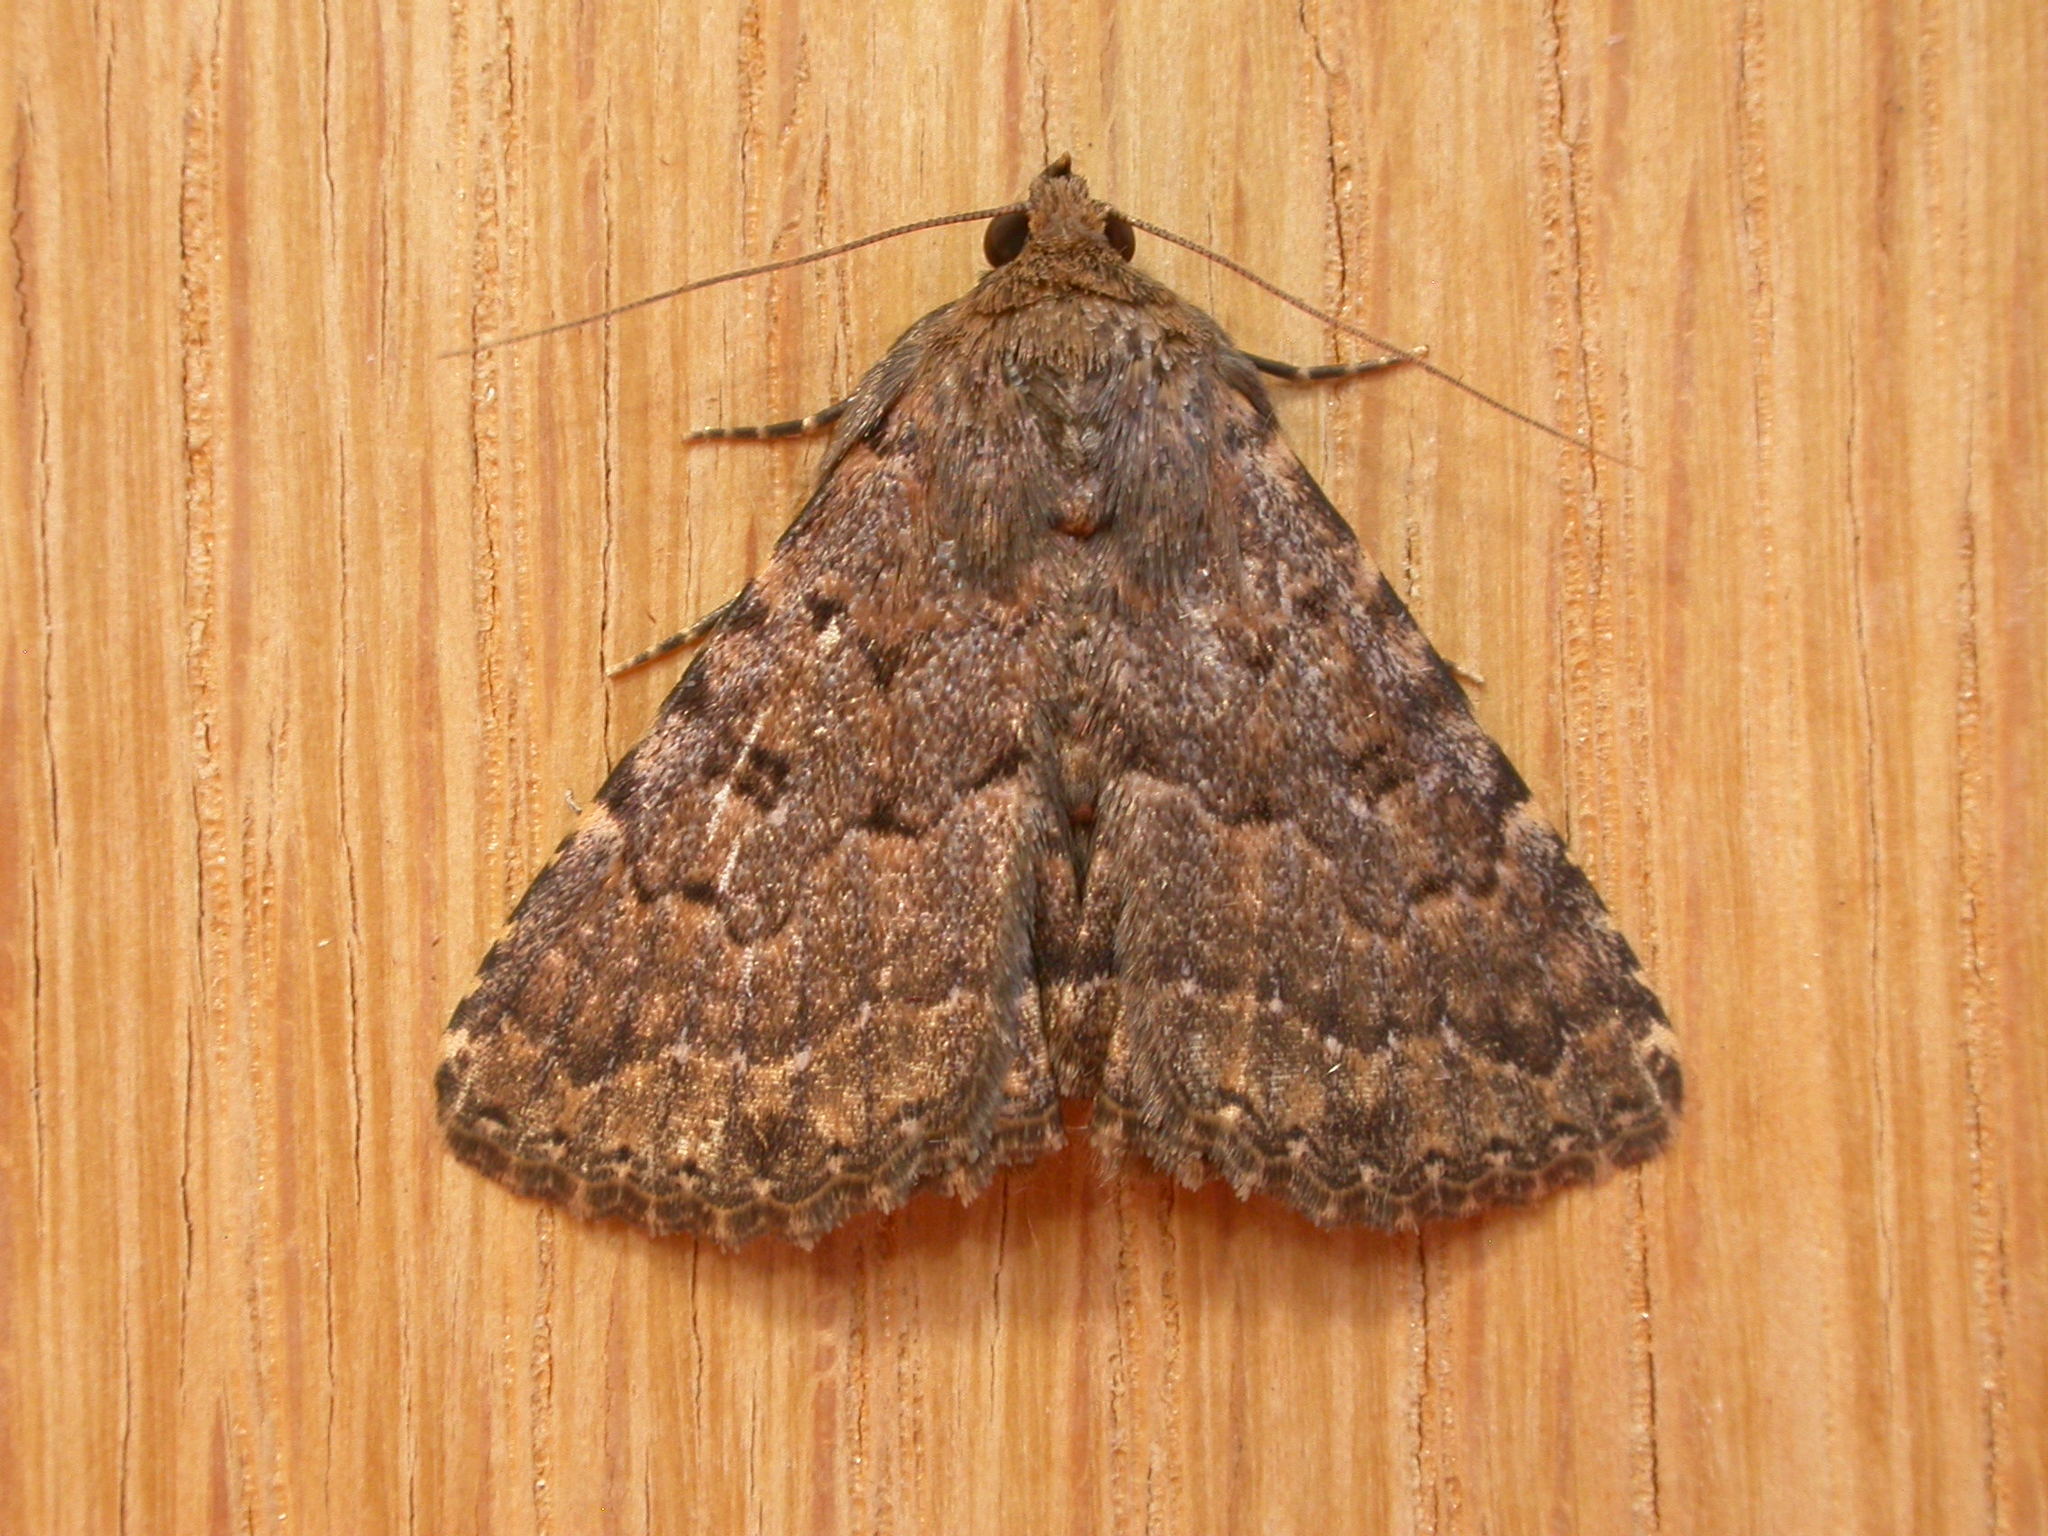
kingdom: Animalia
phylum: Arthropoda
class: Insecta
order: Lepidoptera
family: Erebidae
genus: Diatenes
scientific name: Diatenes igneipicta
